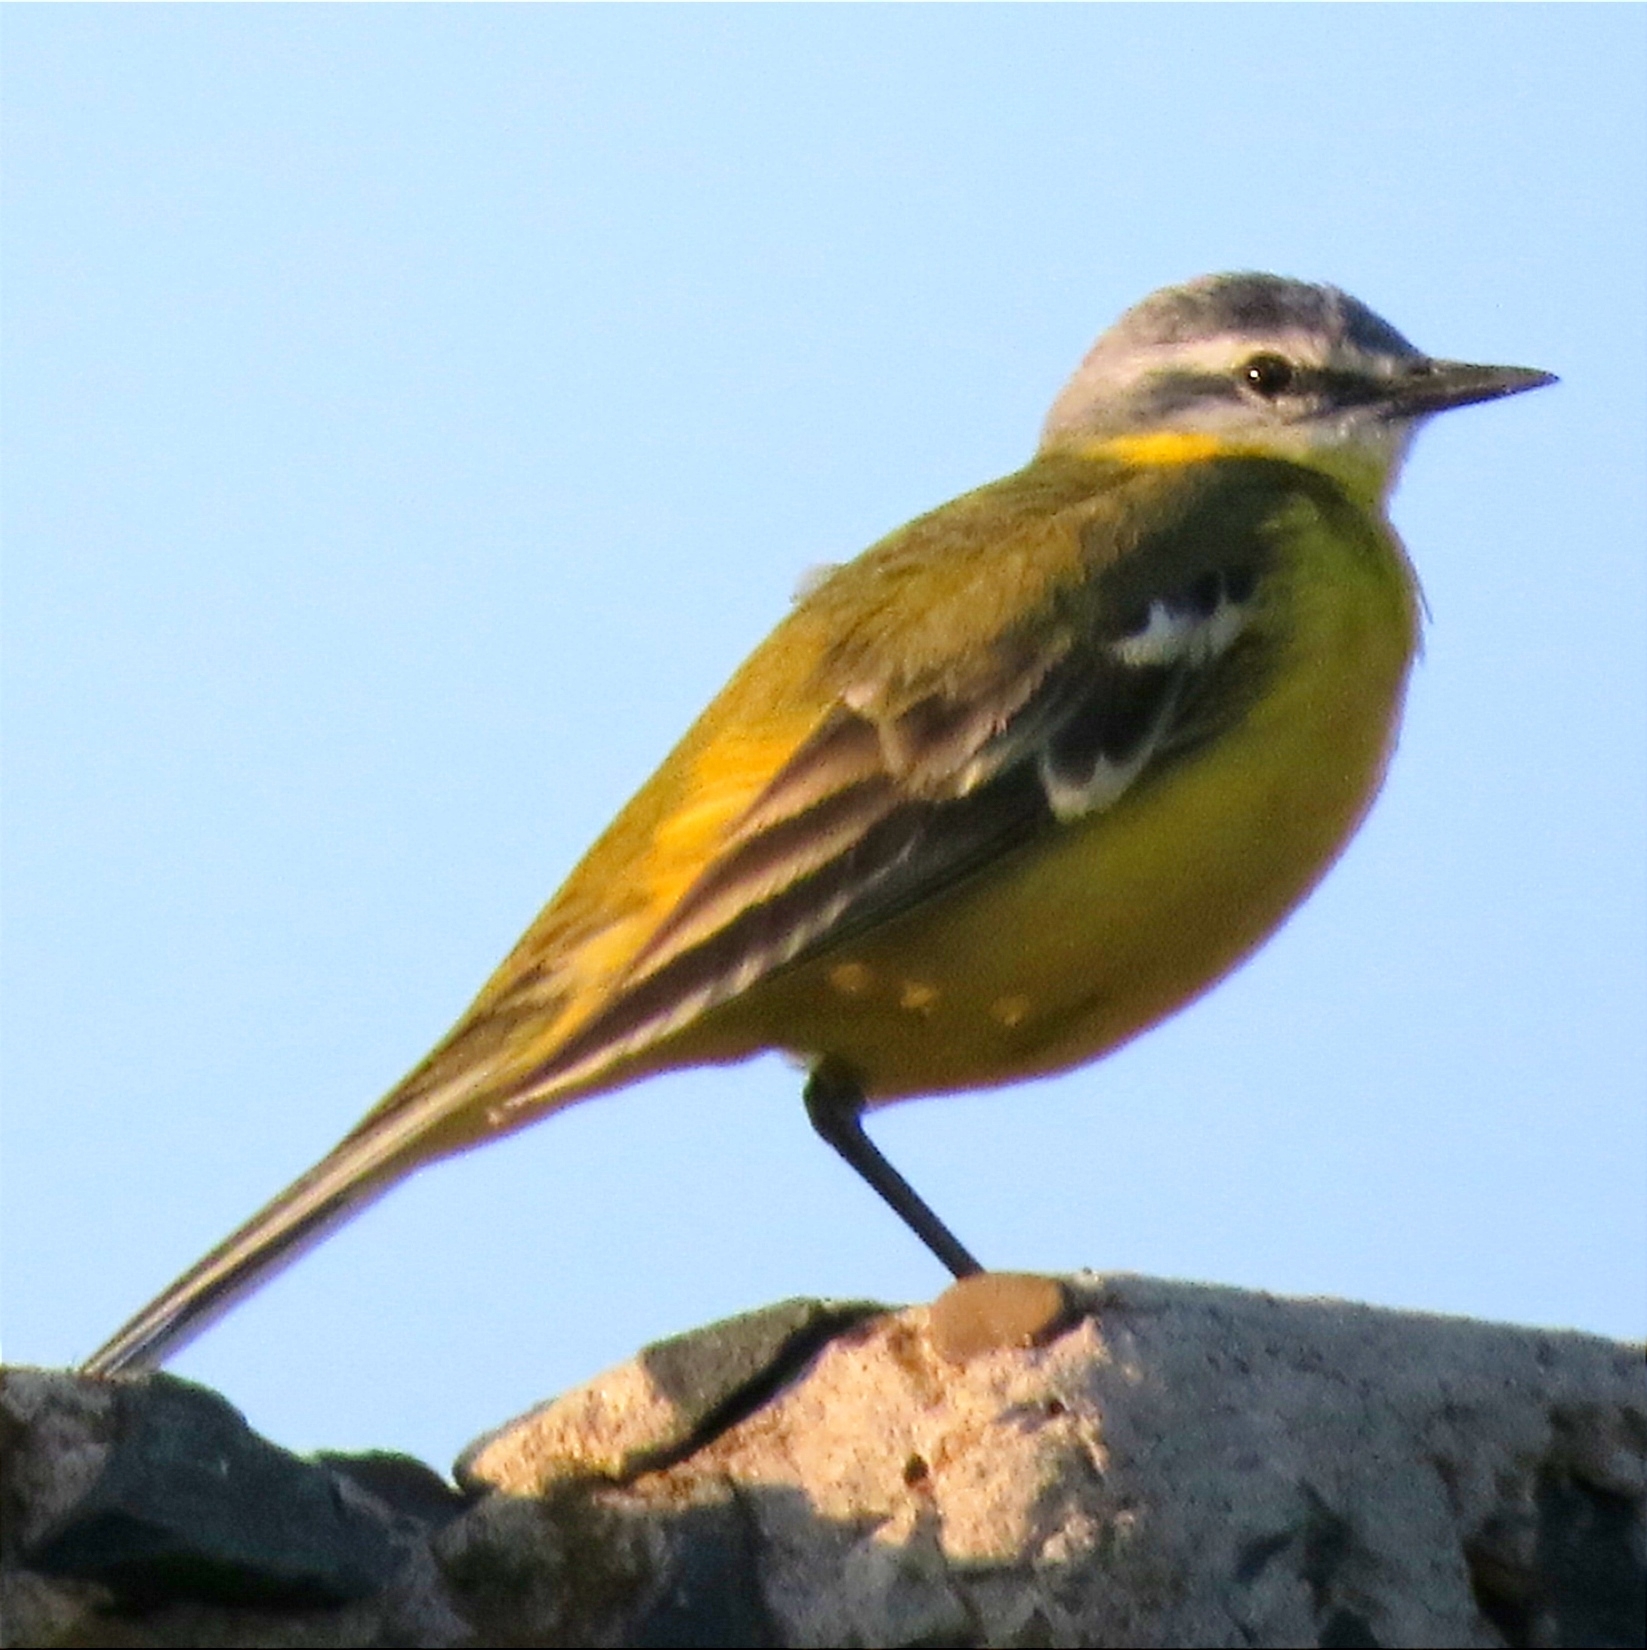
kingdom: Animalia
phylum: Chordata
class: Aves
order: Passeriformes
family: Motacillidae
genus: Motacilla
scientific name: Motacilla flava
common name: Western yellow wagtail
